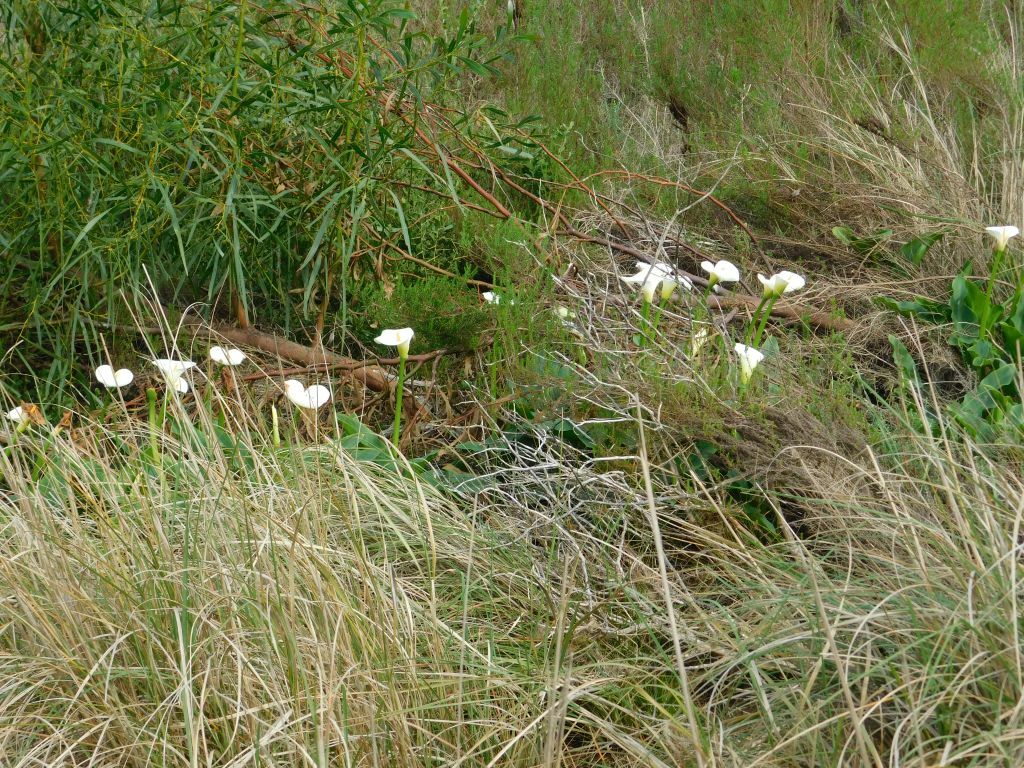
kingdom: Plantae
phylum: Tracheophyta
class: Liliopsida
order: Alismatales
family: Araceae
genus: Zantedeschia
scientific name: Zantedeschia aethiopica
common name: Altar-lily
